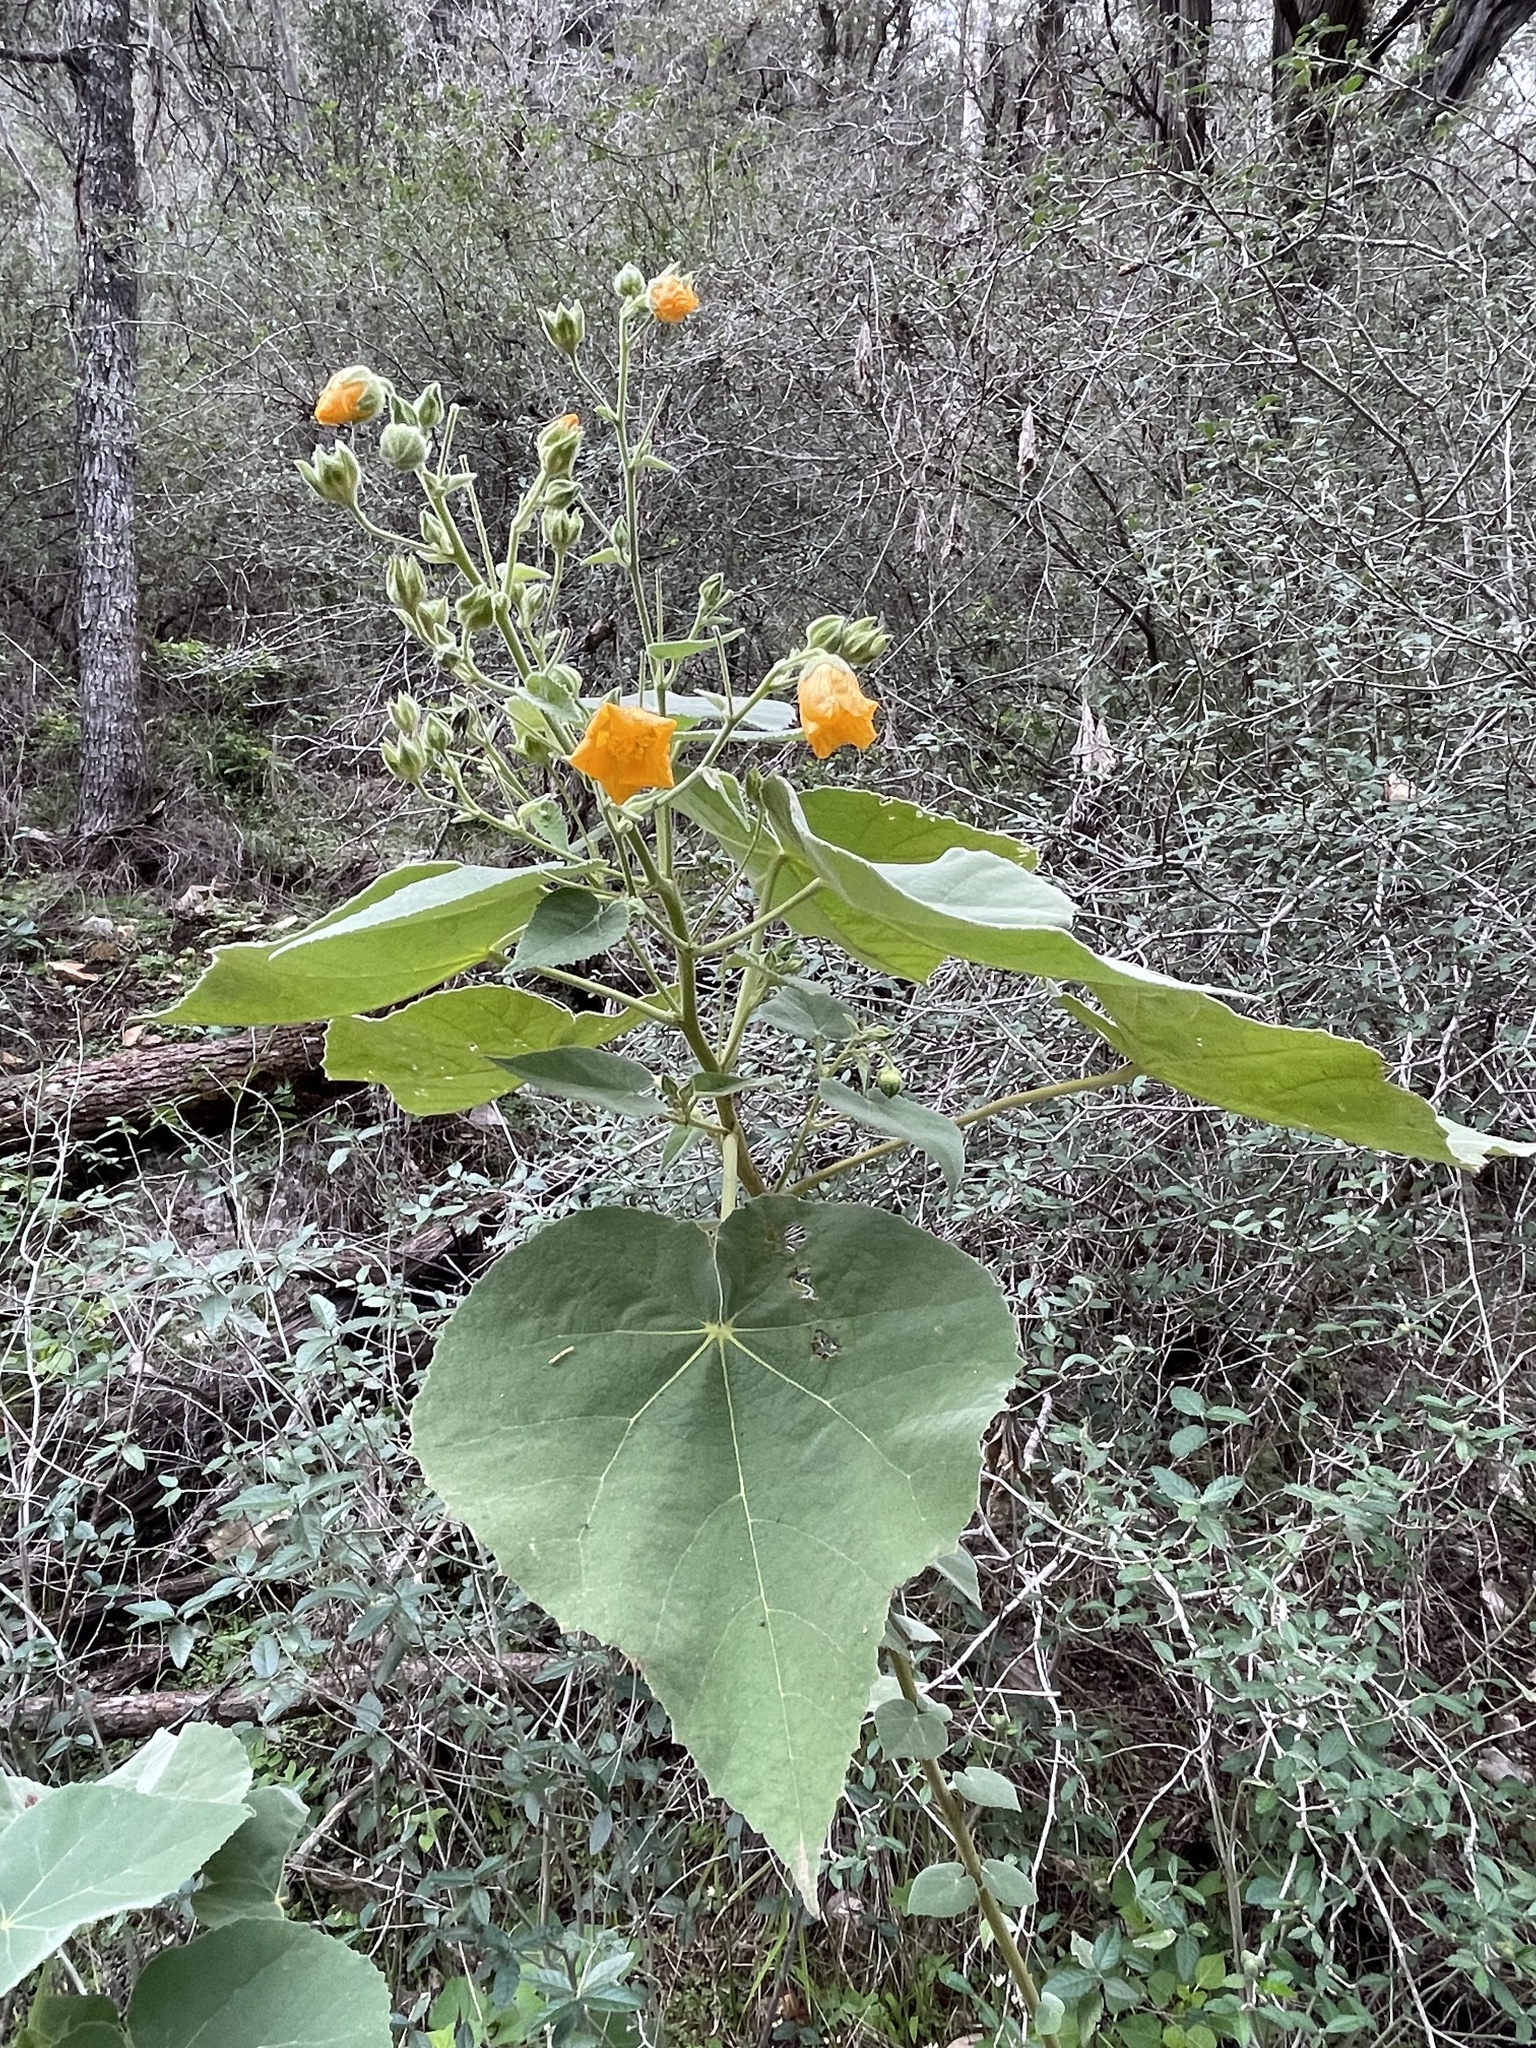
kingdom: Plantae
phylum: Tracheophyta
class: Magnoliopsida
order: Malvales
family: Malvaceae
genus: Allowissadula
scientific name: Allowissadula holosericea
